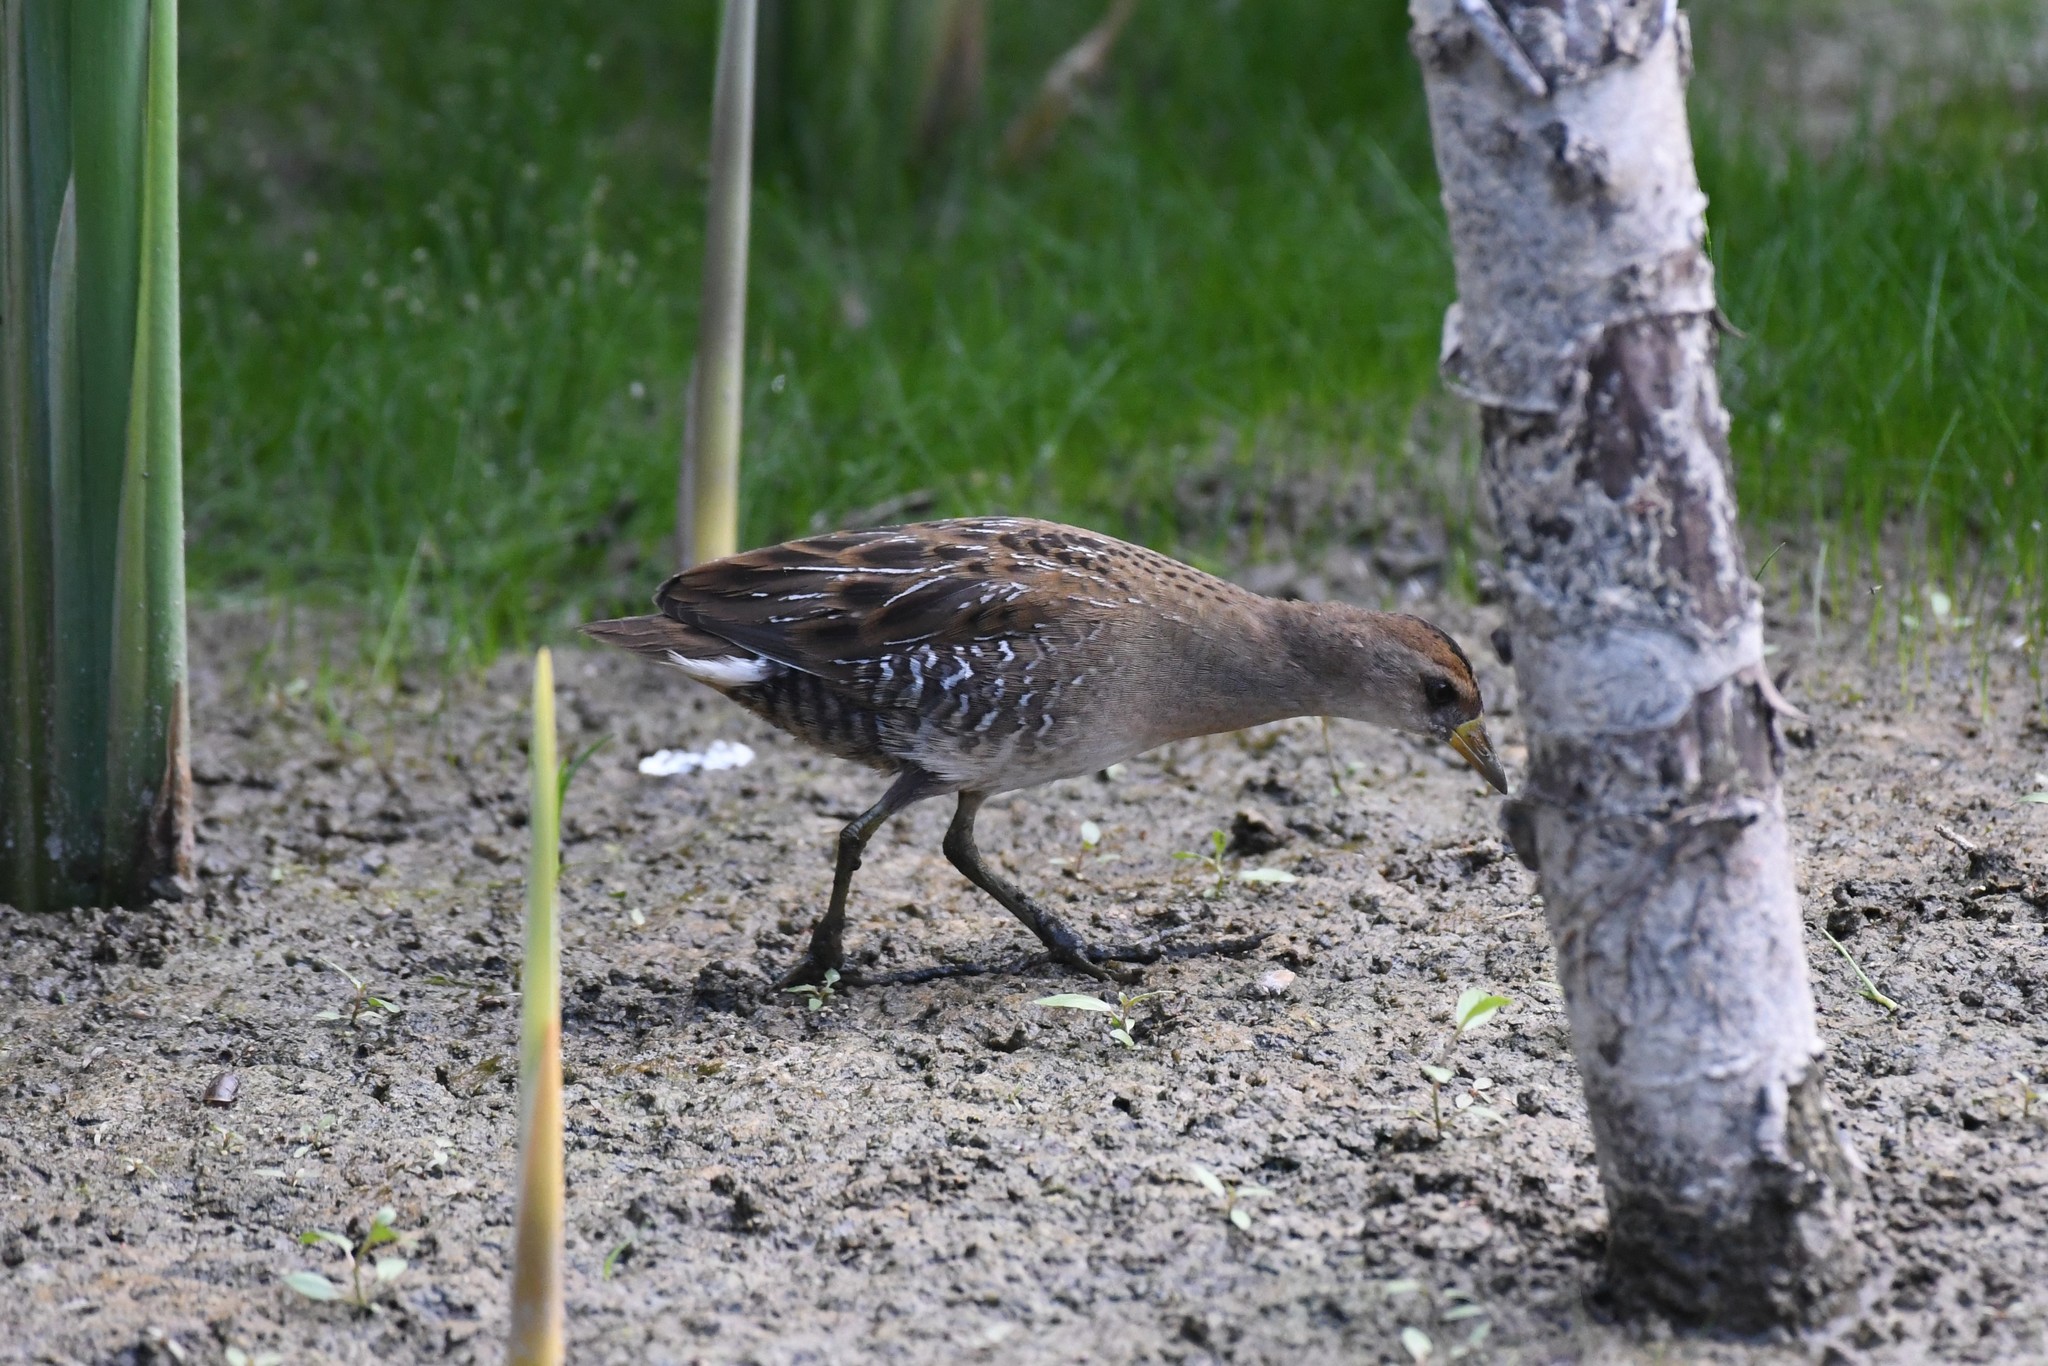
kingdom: Animalia
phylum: Chordata
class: Aves
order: Gruiformes
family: Rallidae
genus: Porzana
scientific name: Porzana carolina
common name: Sora
